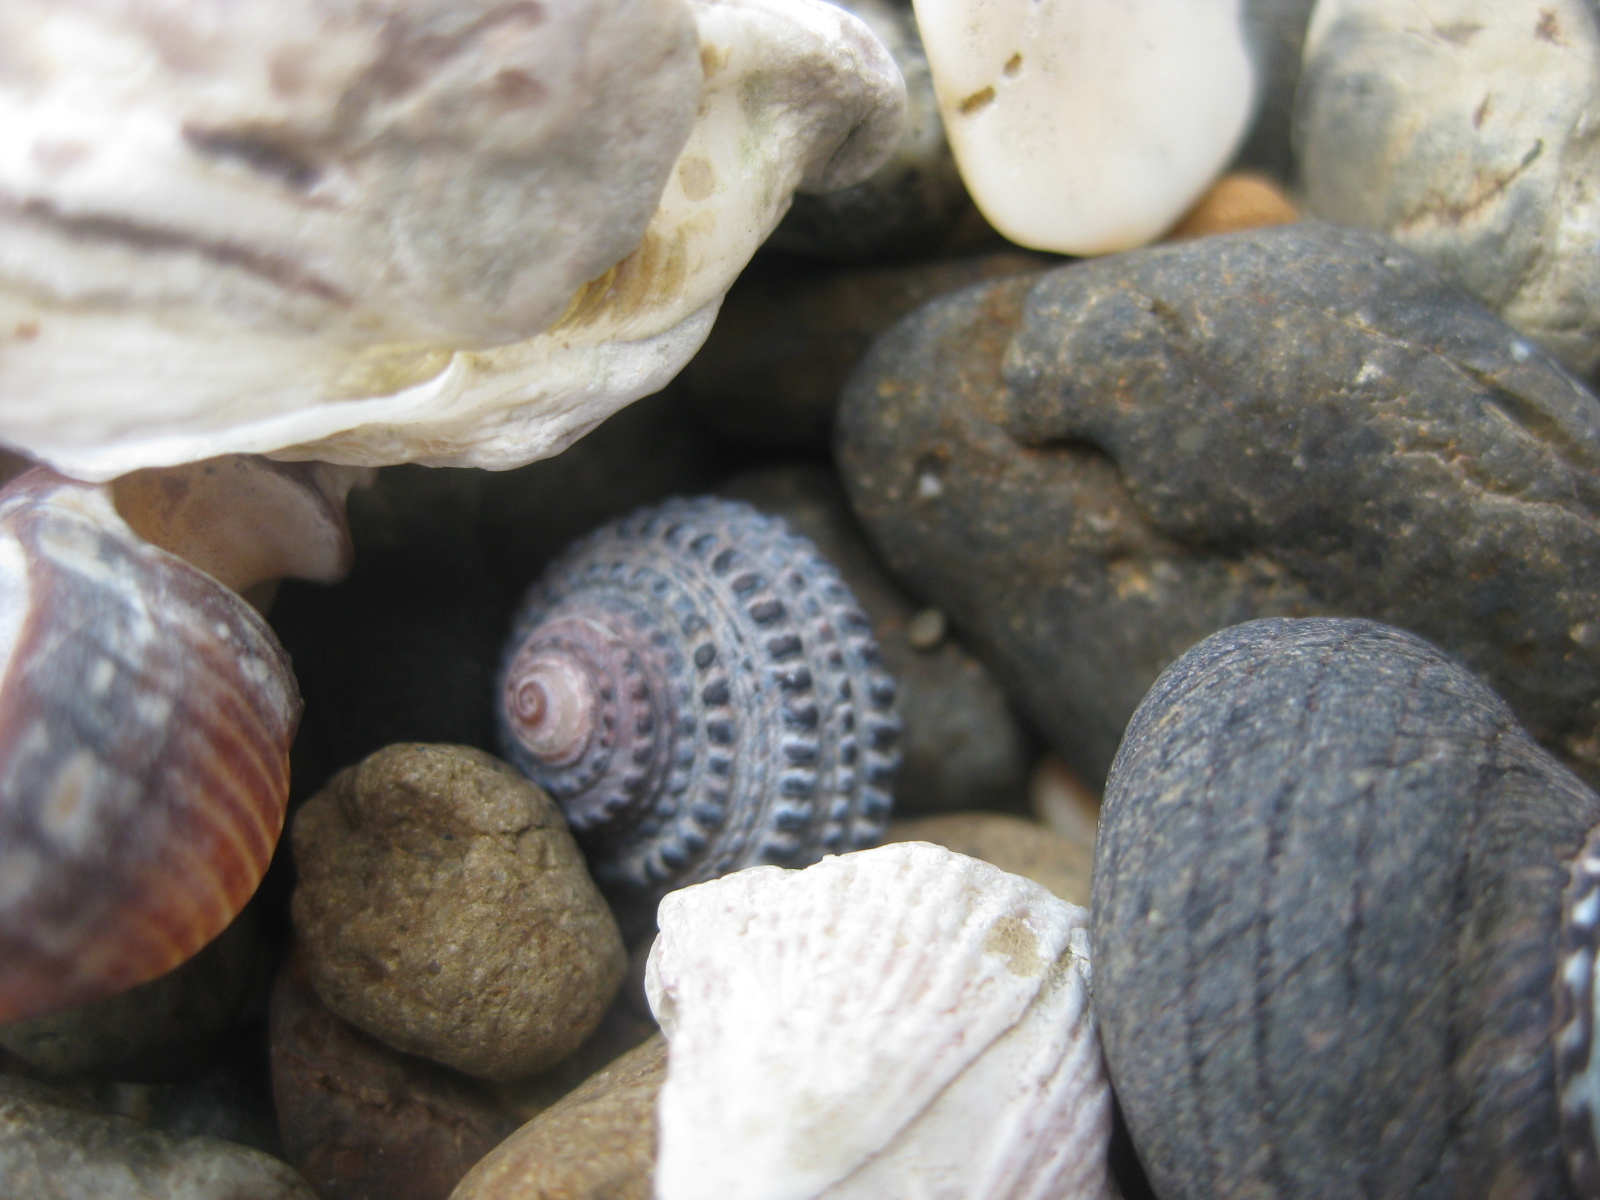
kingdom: Animalia
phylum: Mollusca
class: Gastropoda
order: Trochida
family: Trochidae
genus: Diloma
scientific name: Diloma bicanaliculatum
